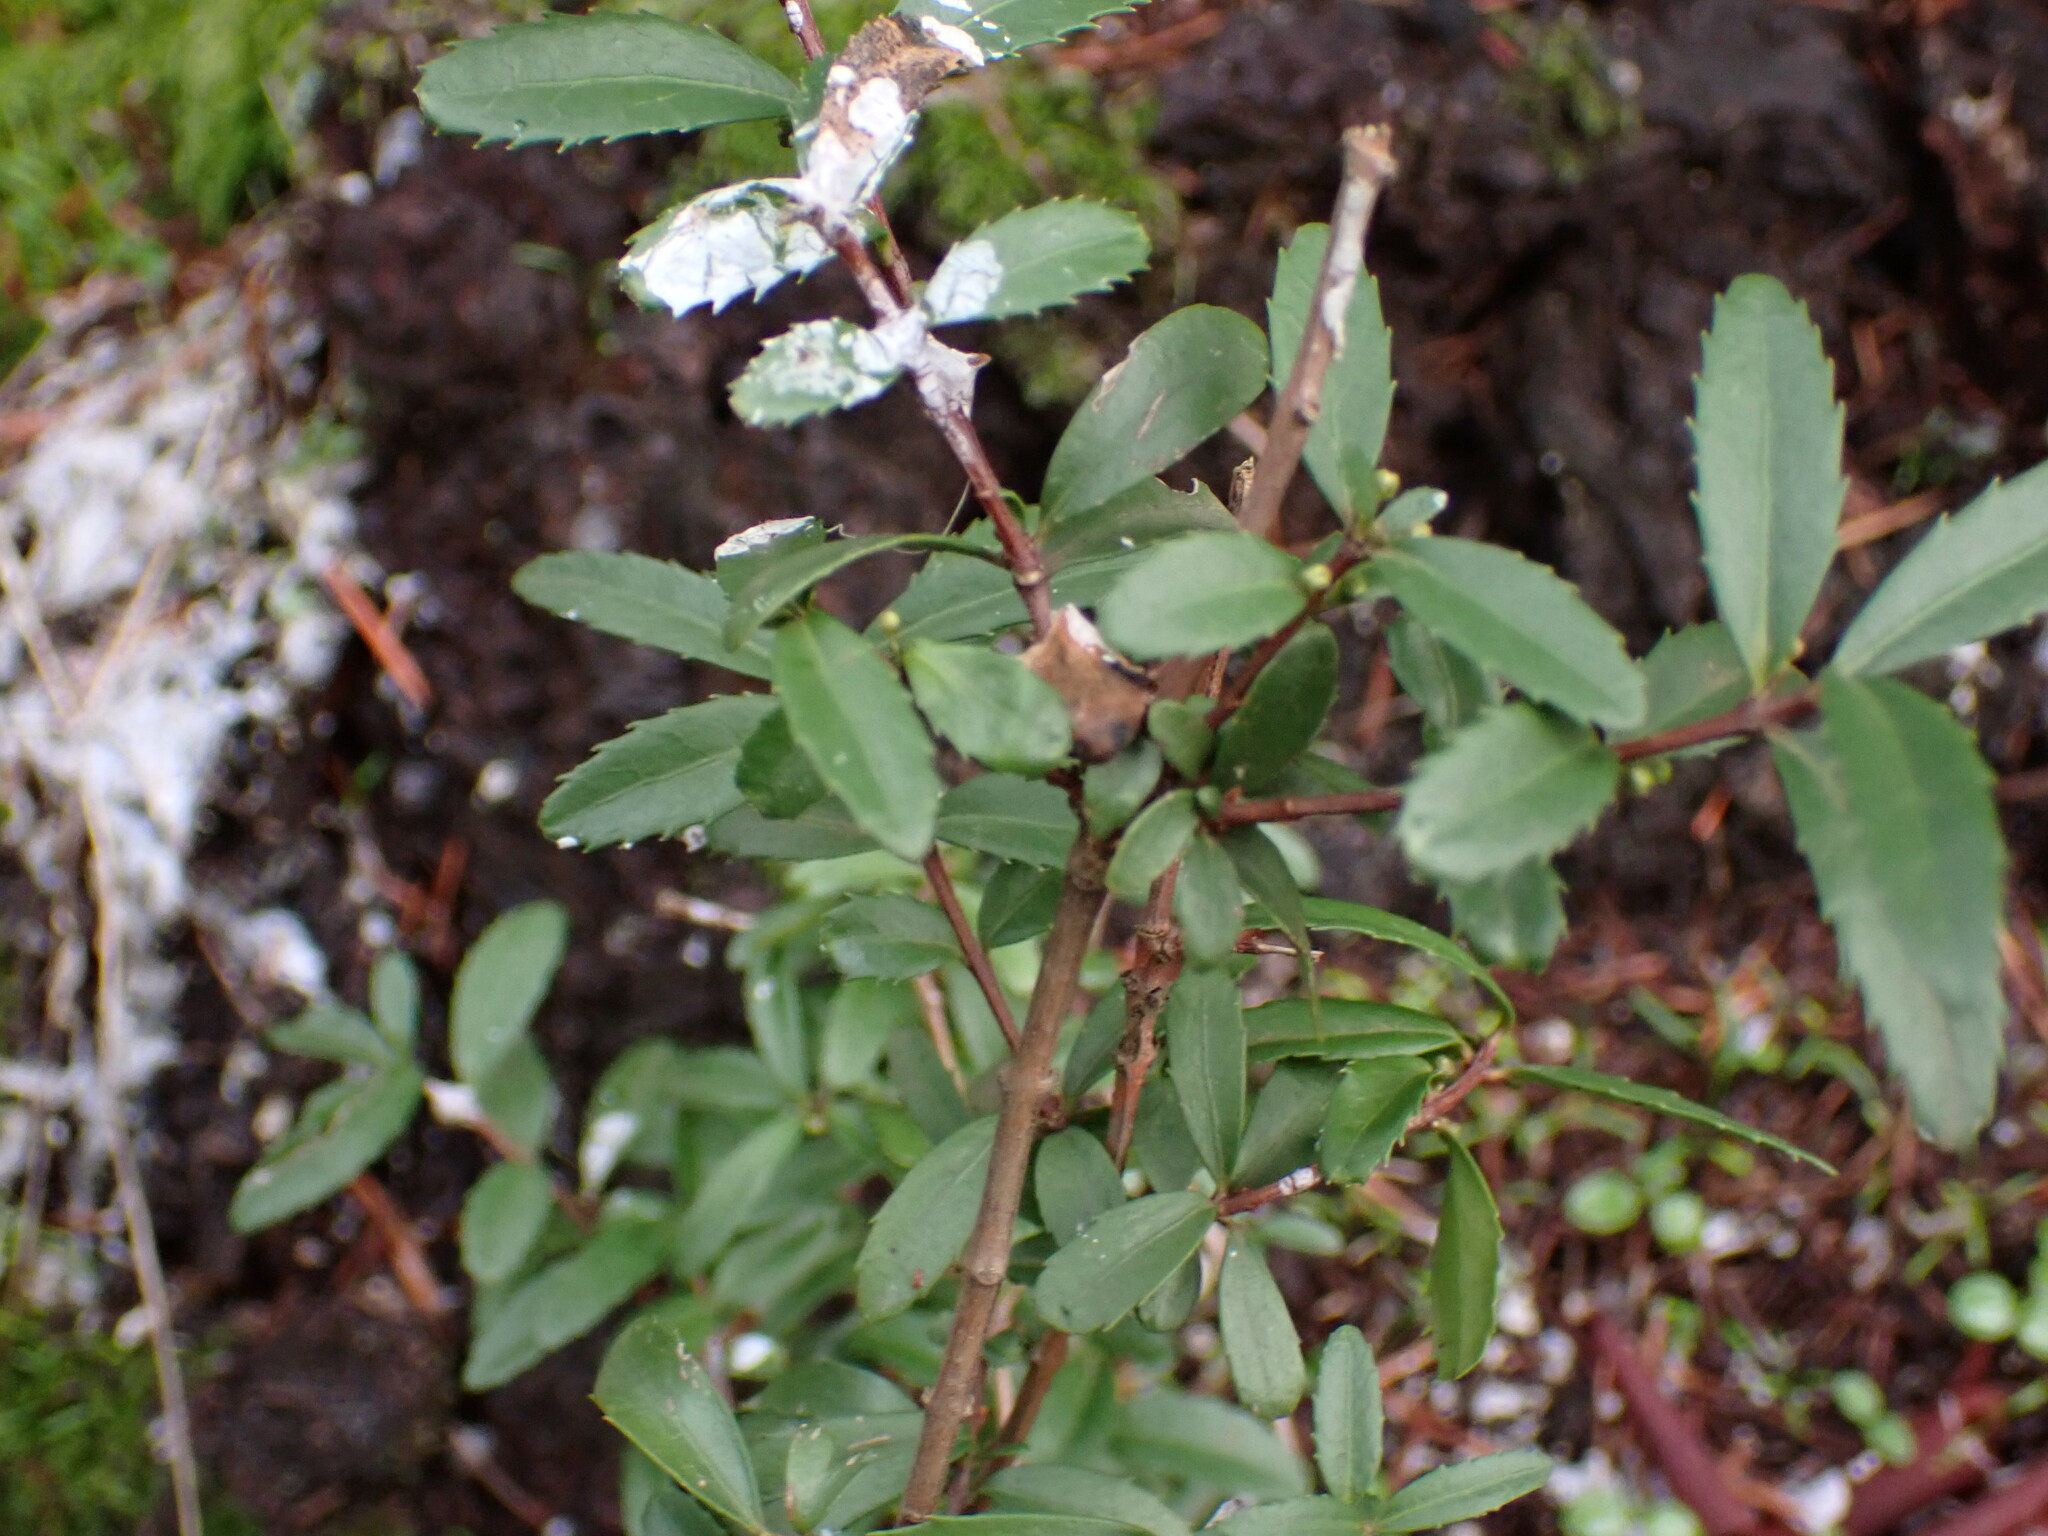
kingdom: Plantae
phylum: Tracheophyta
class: Magnoliopsida
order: Celastrales
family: Celastraceae
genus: Paxistima
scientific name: Paxistima myrsinites
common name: Mountain-lover
